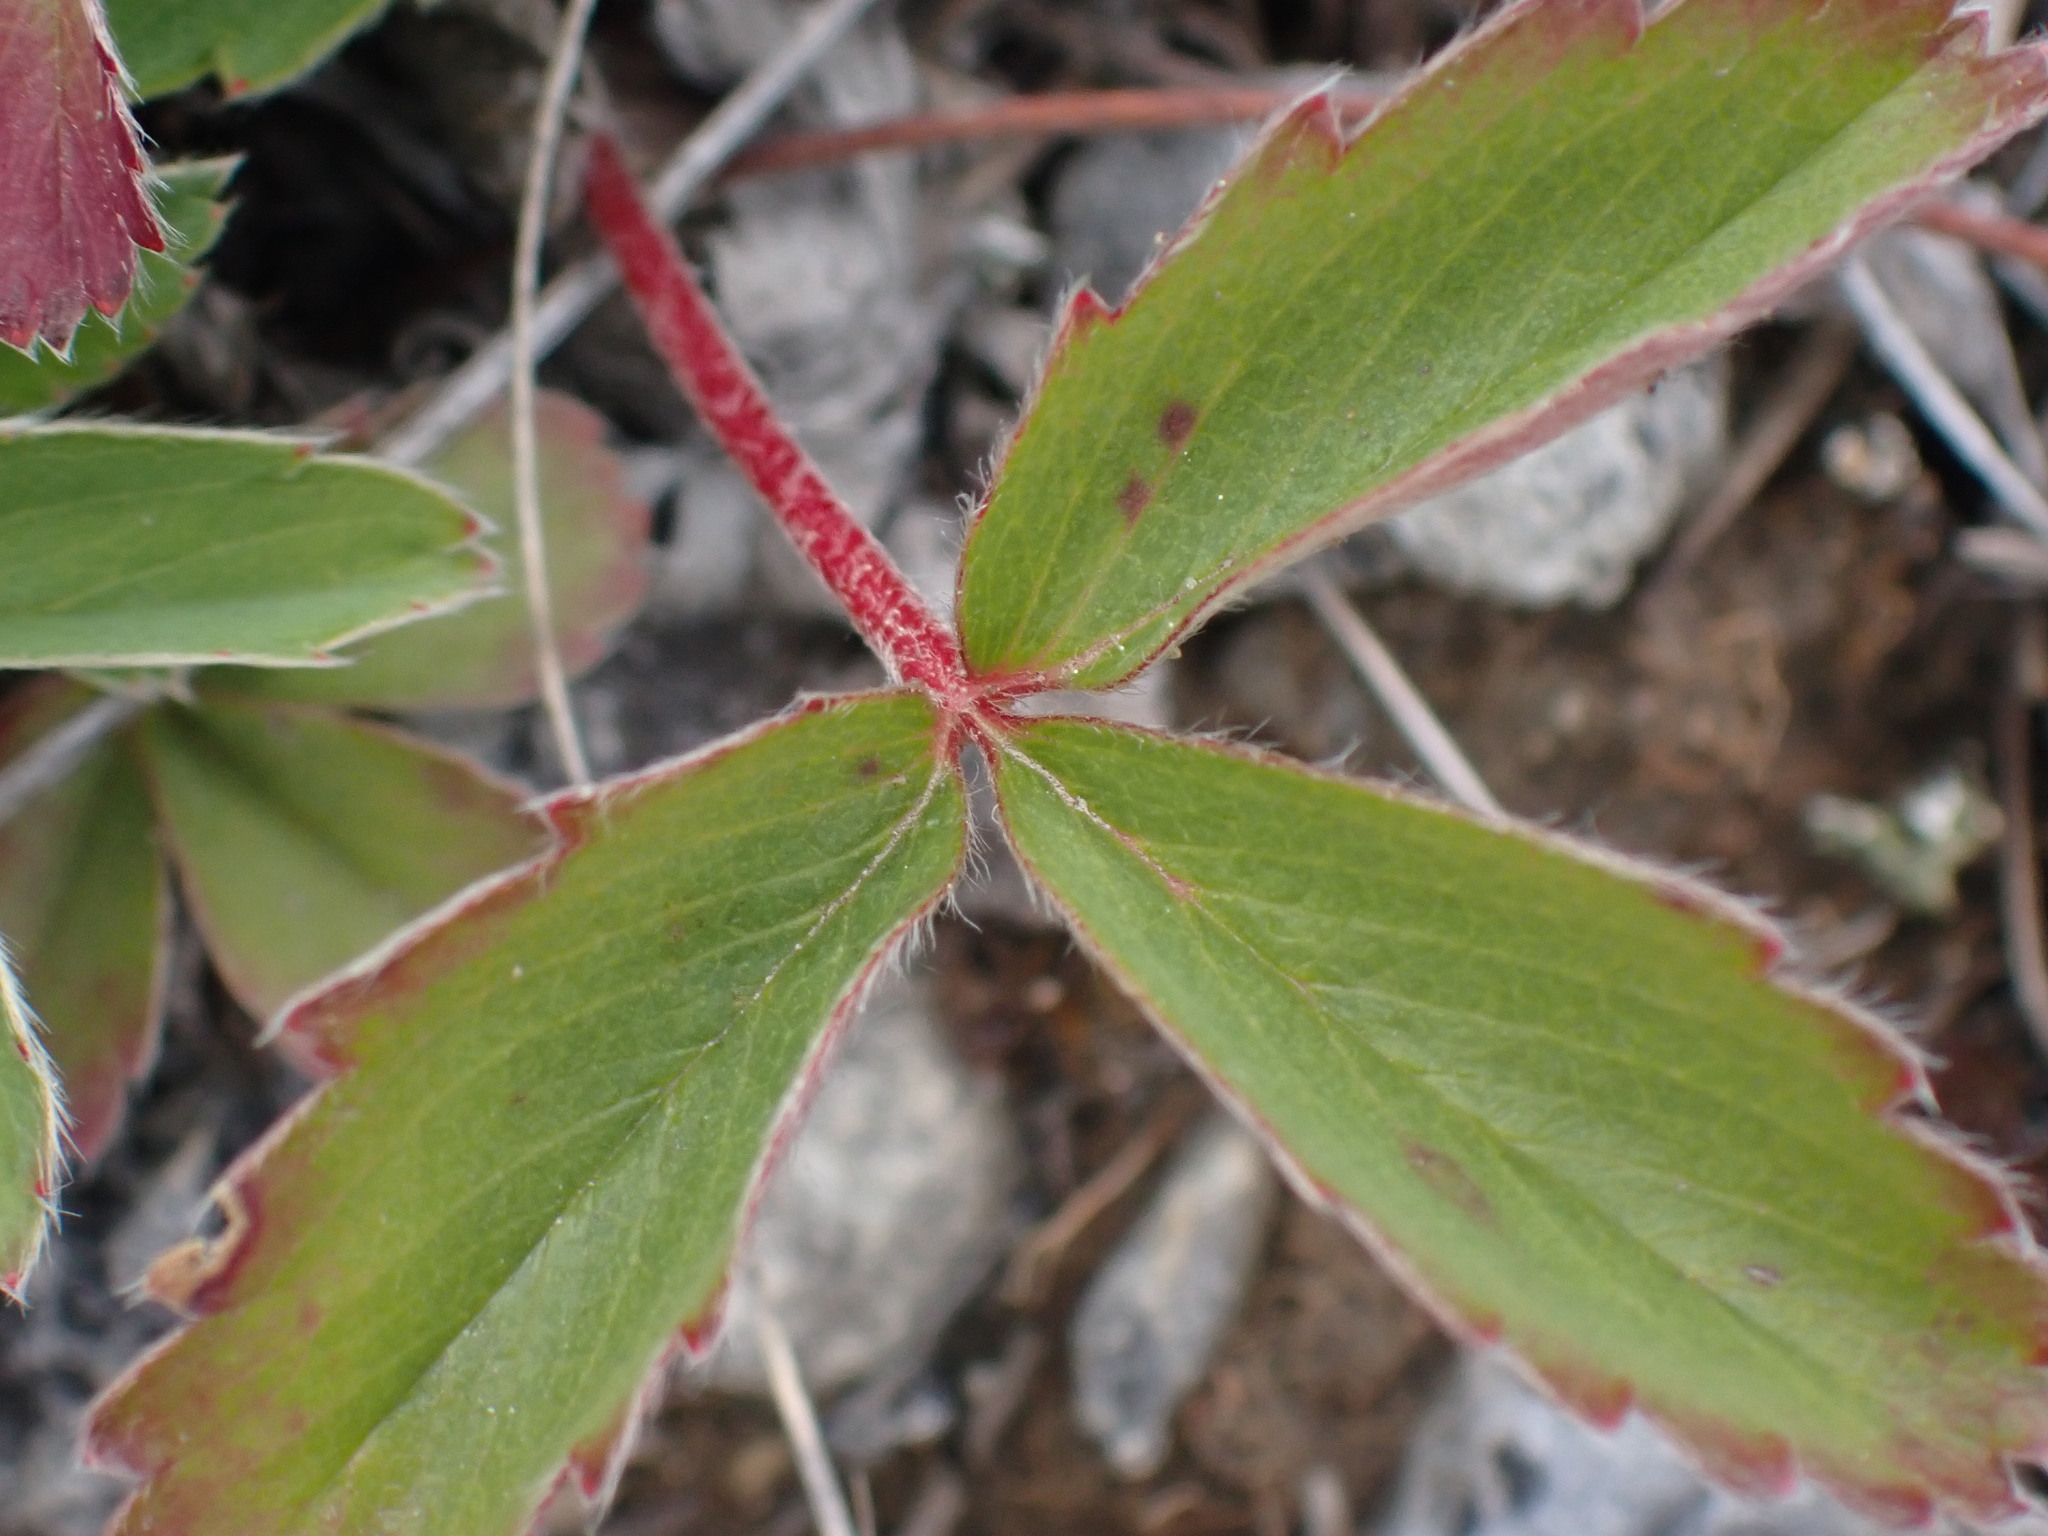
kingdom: Plantae
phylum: Tracheophyta
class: Magnoliopsida
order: Rosales
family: Rosaceae
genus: Fragaria
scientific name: Fragaria virginiana
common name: Thickleaved wild strawberry
